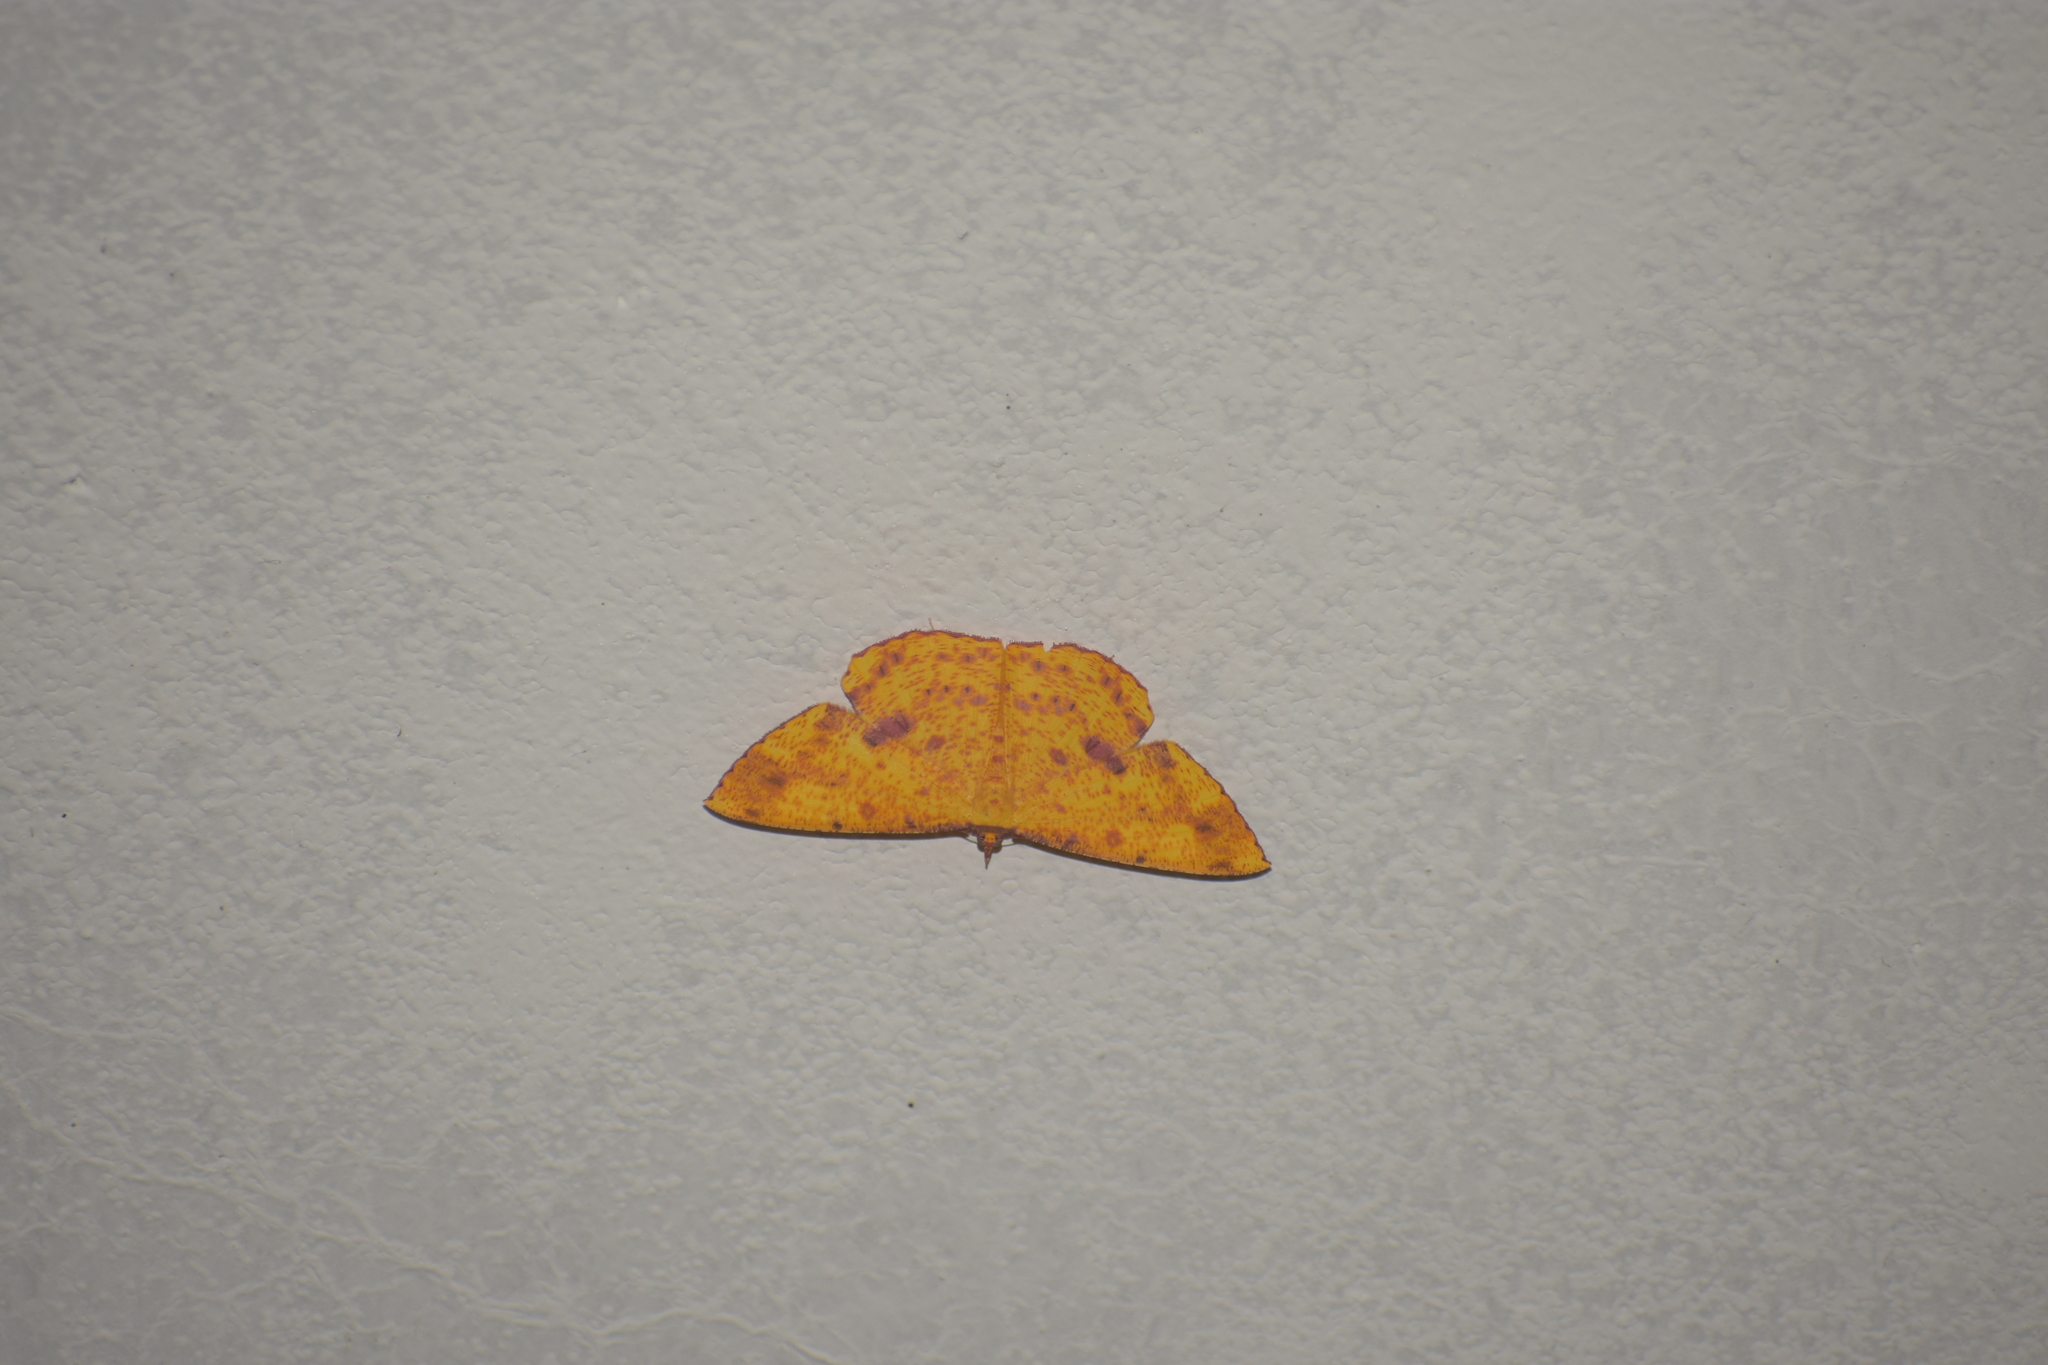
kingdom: Animalia
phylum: Arthropoda
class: Insecta
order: Lepidoptera
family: Geometridae
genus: Eumelea
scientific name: Eumelea ludovicata
